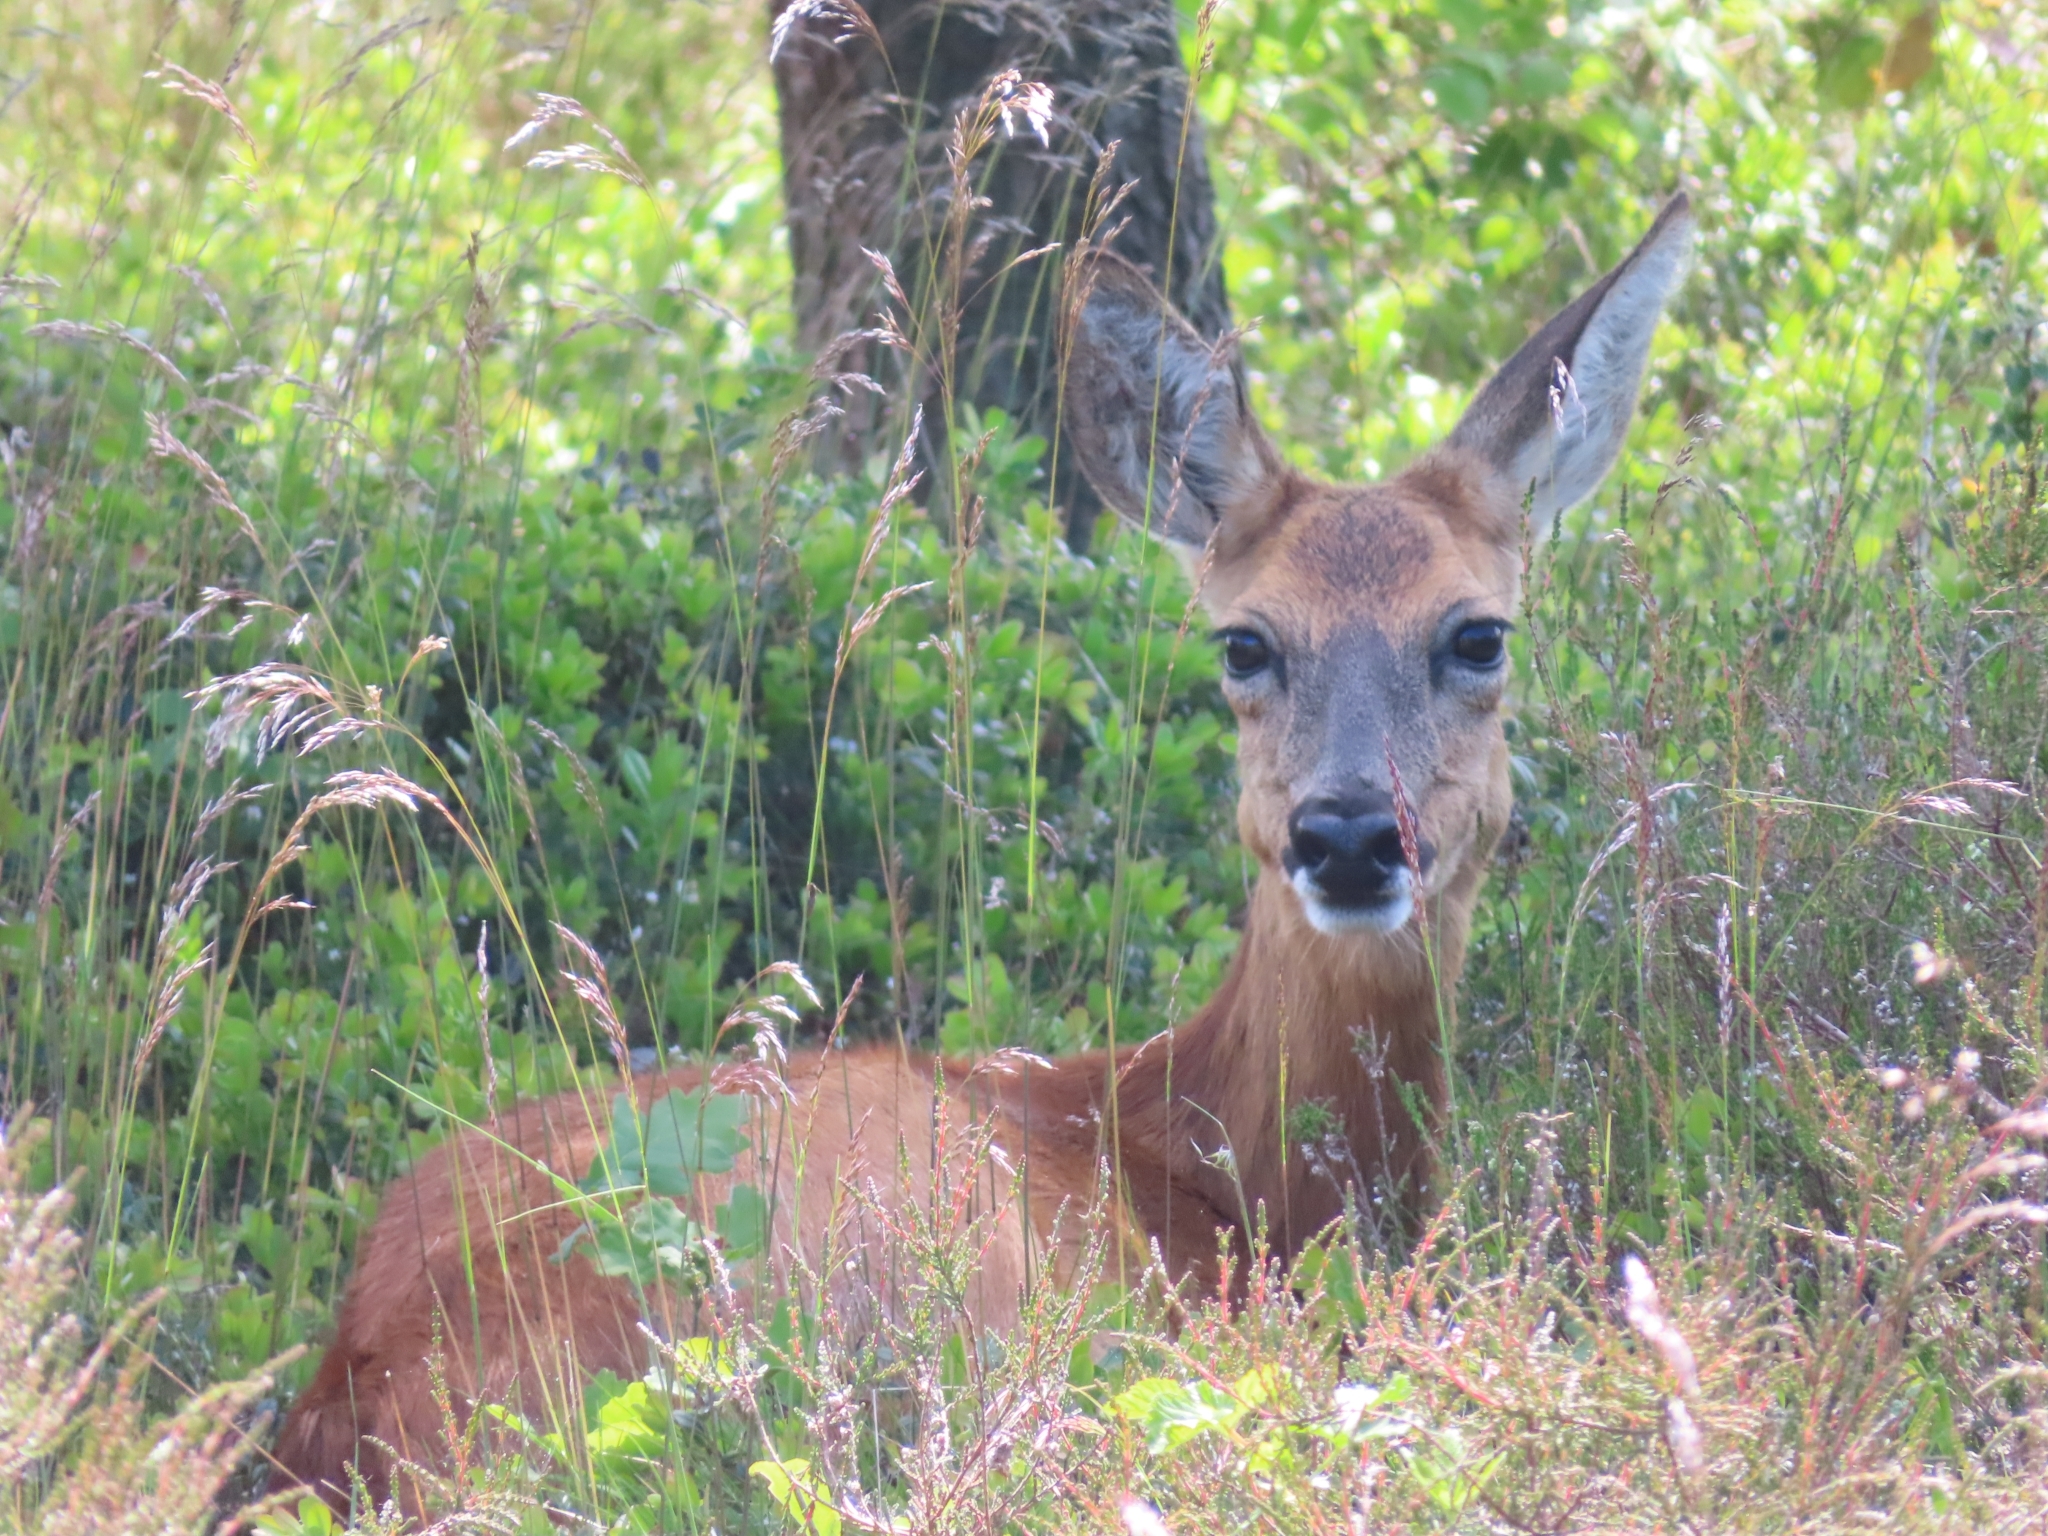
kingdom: Animalia
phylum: Chordata
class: Mammalia
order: Artiodactyla
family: Cervidae
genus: Capreolus
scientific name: Capreolus capreolus
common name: Western roe deer
